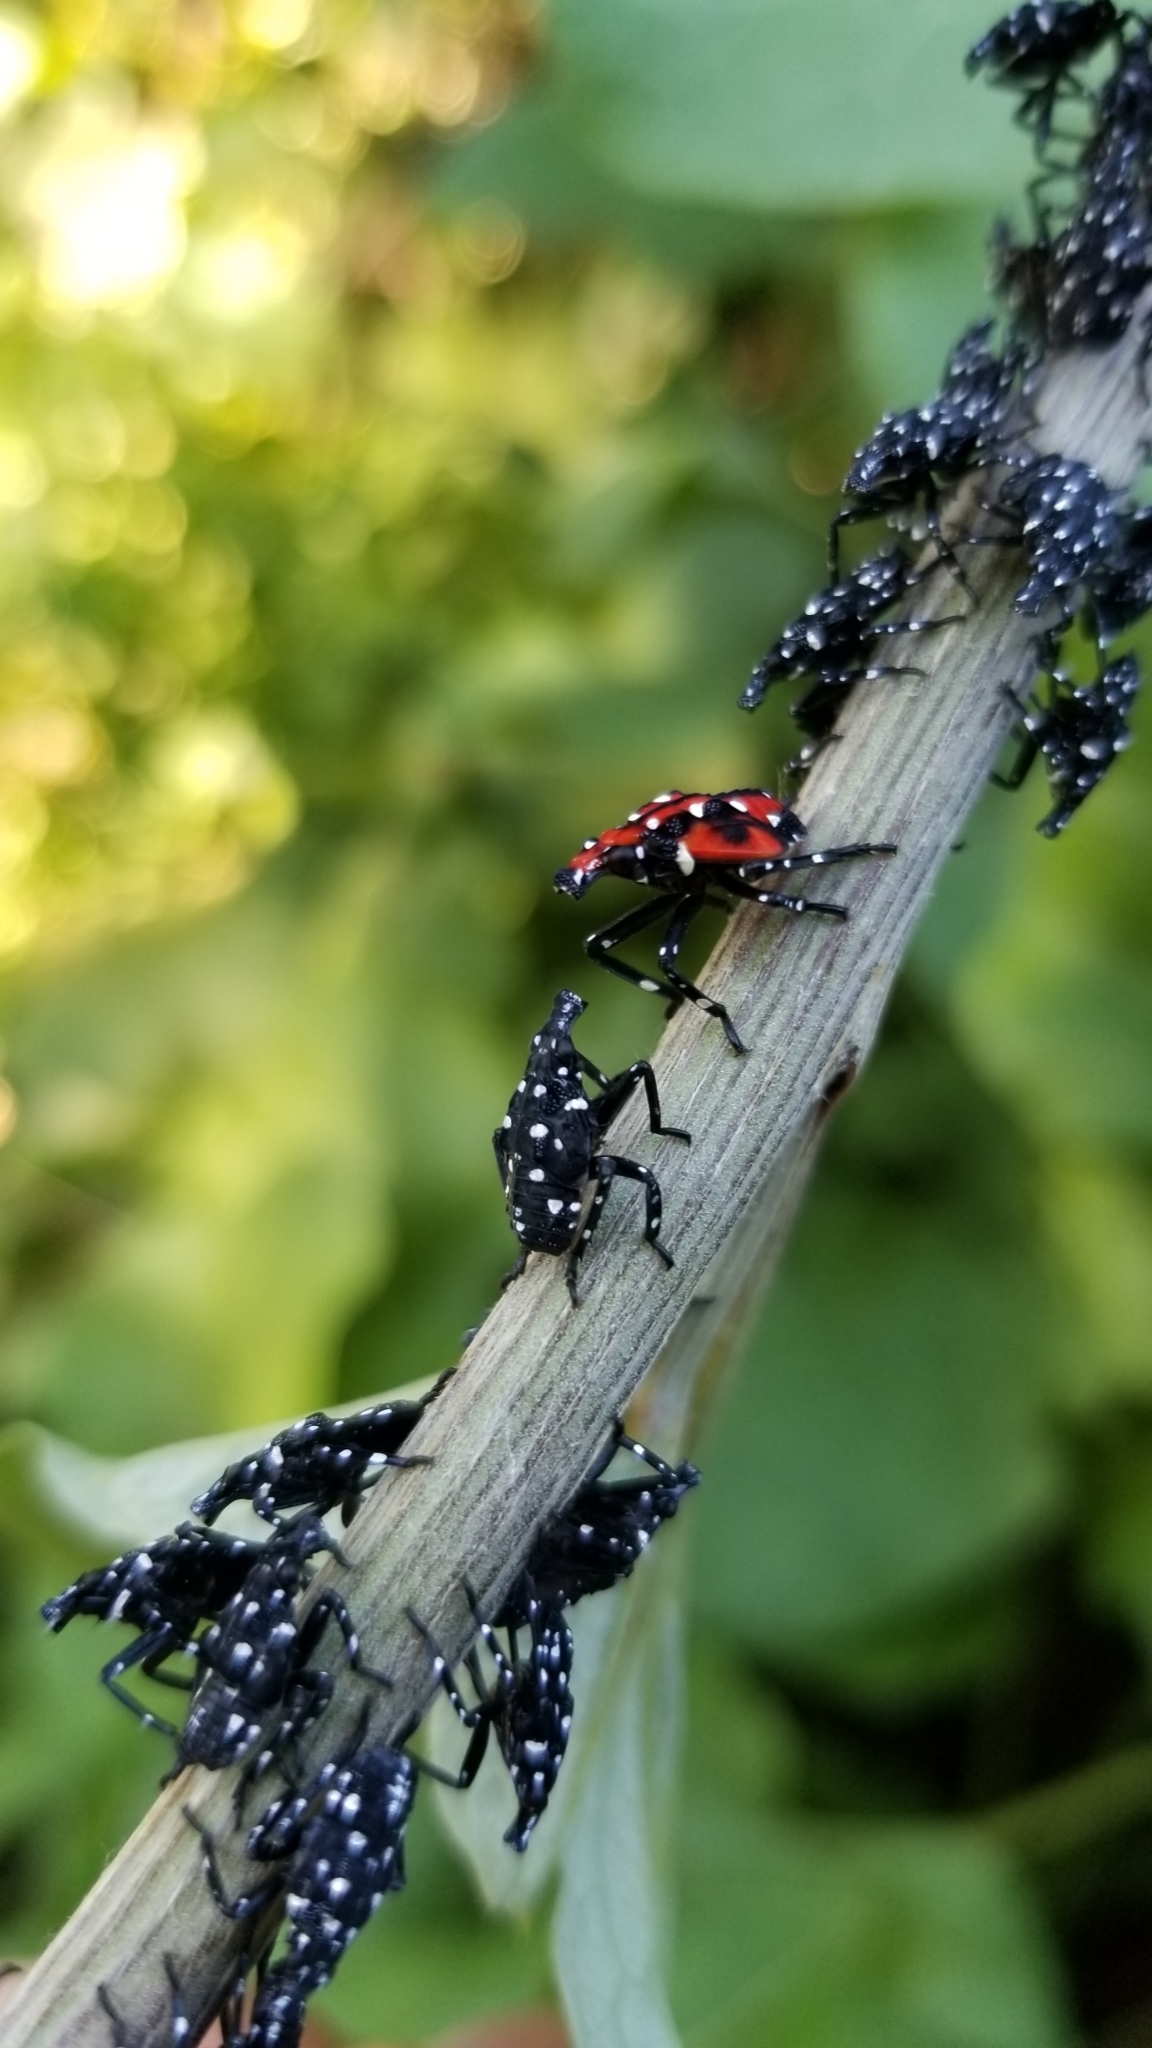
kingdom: Animalia
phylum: Arthropoda
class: Insecta
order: Hemiptera
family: Fulgoridae
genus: Lycorma
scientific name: Lycorma delicatula
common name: Spotted lanternfly
